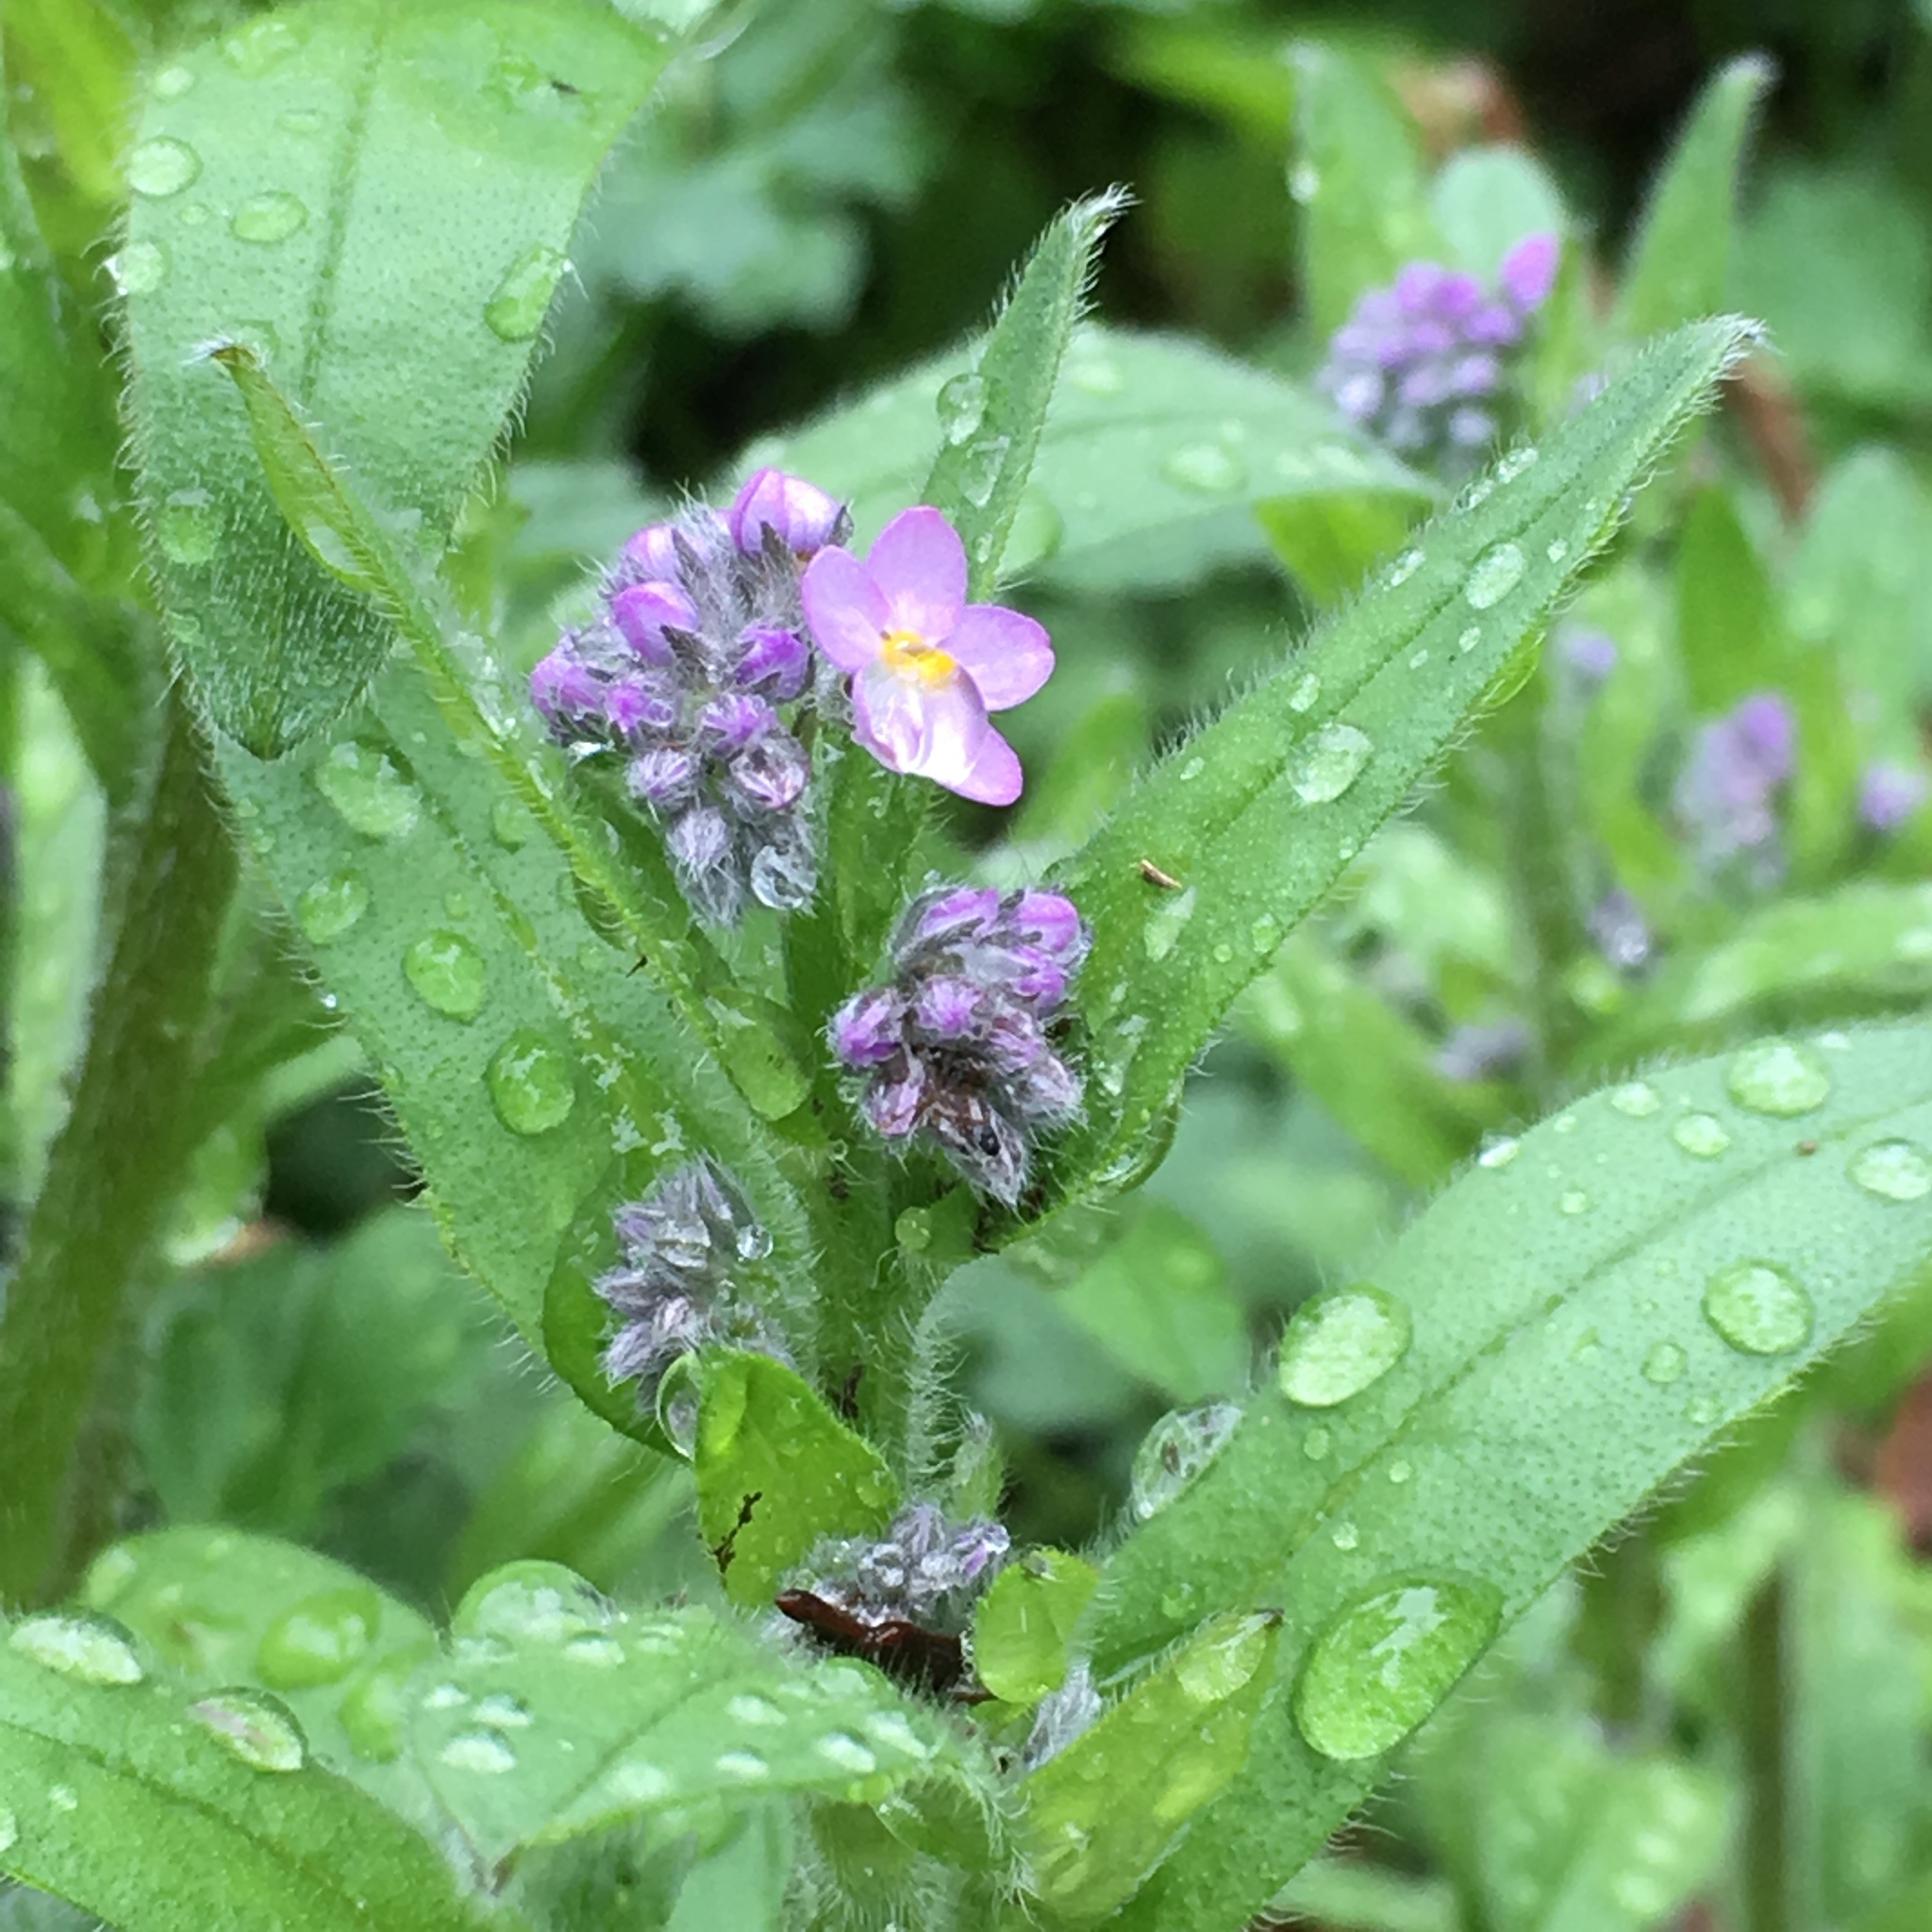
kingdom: Plantae
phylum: Tracheophyta
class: Magnoliopsida
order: Boraginales
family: Boraginaceae
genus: Myosotis
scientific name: Myosotis sylvatica
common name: Wood forget-me-not
